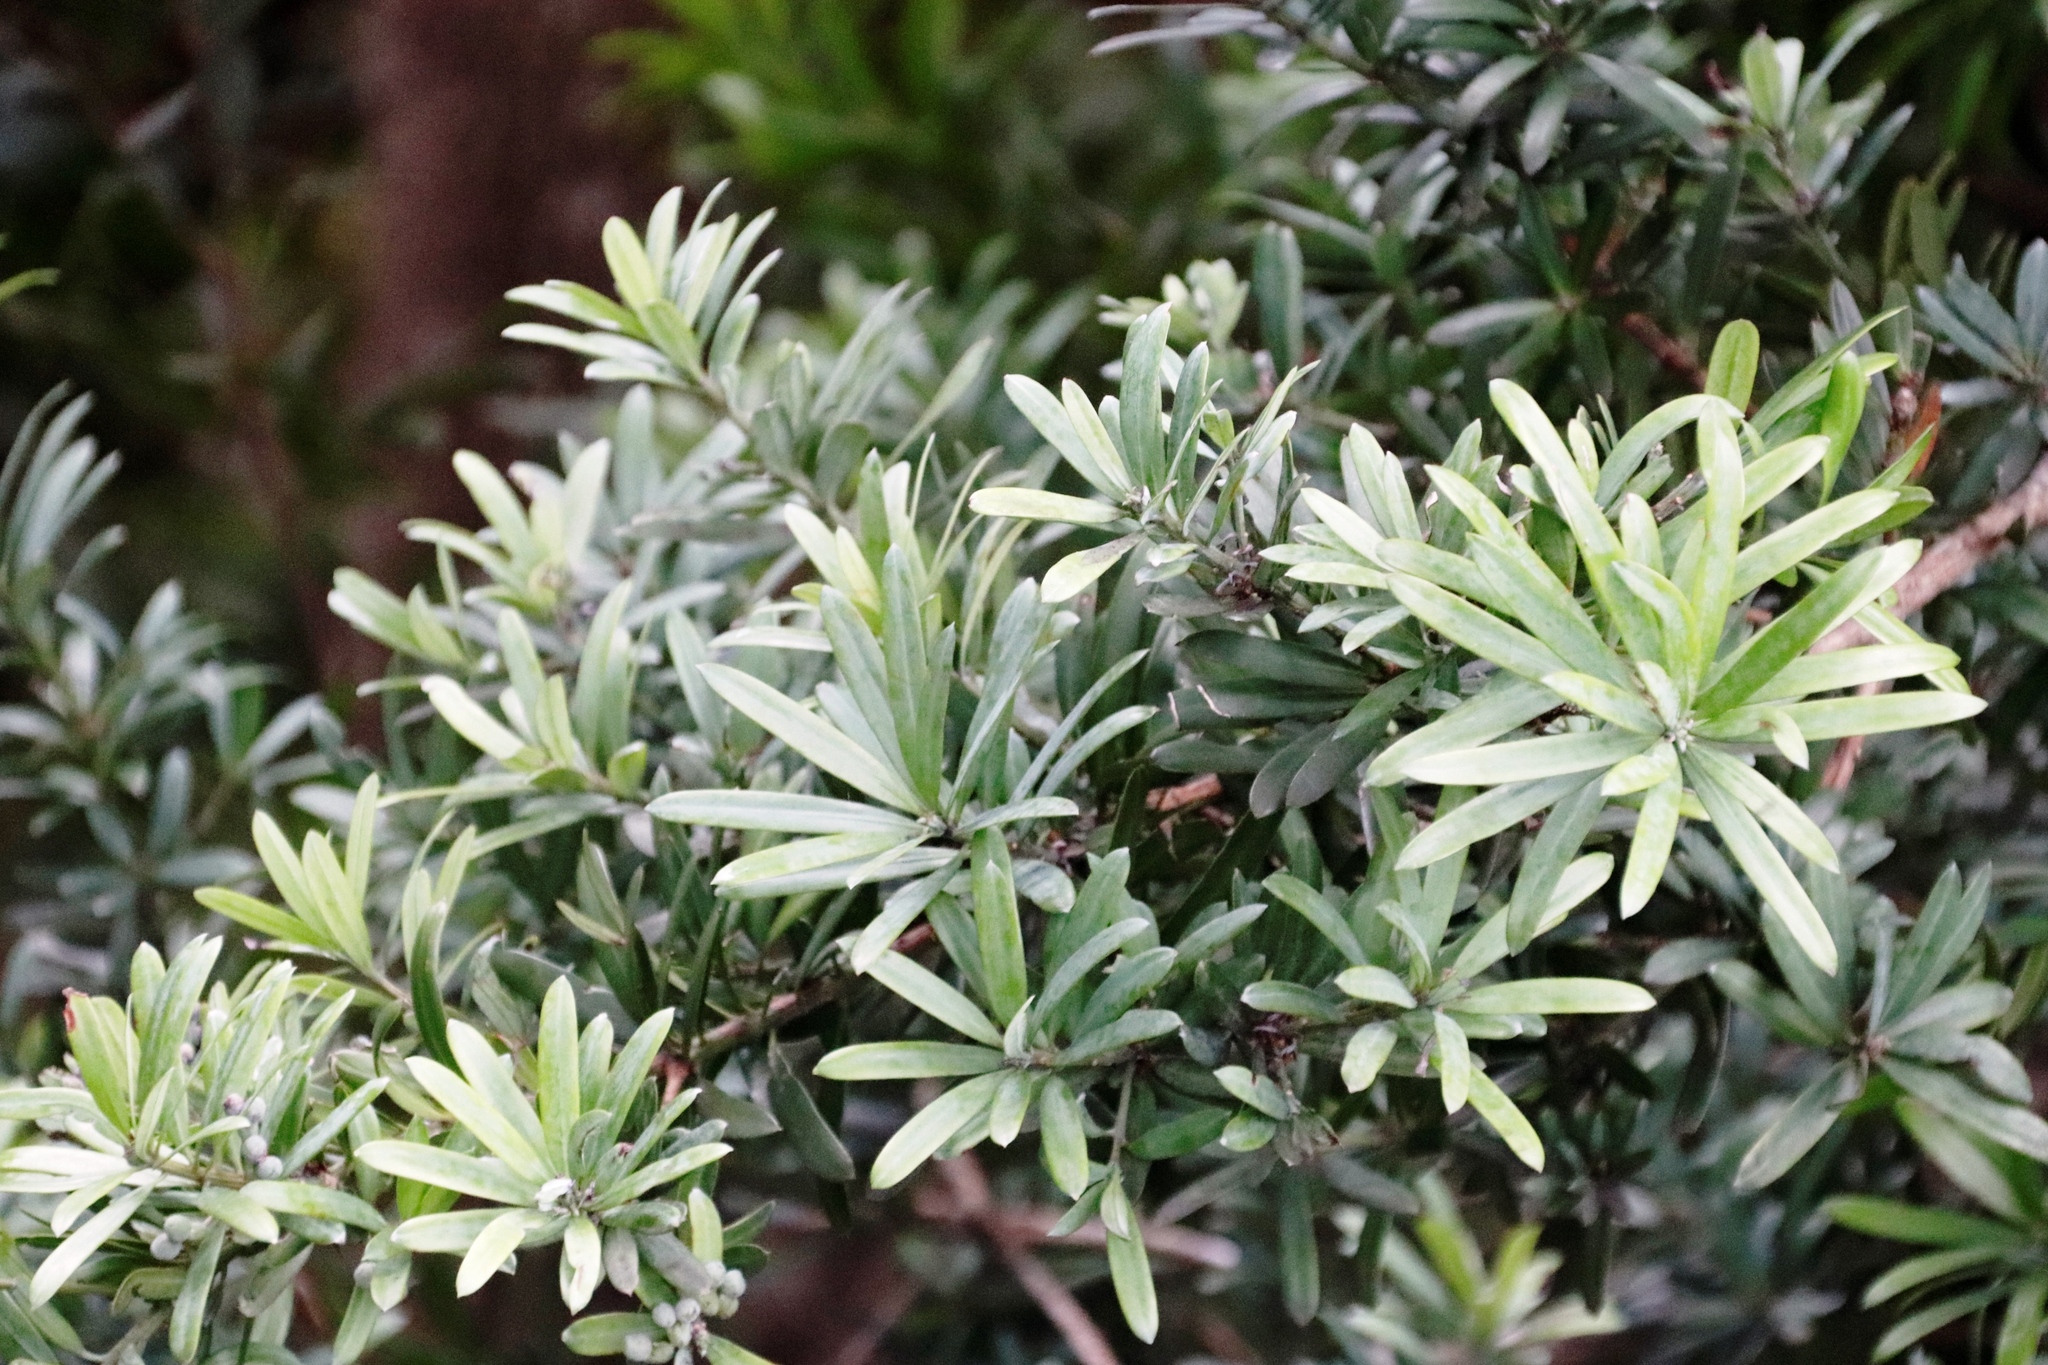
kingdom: Plantae
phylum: Tracheophyta
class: Pinopsida
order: Pinales
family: Podocarpaceae
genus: Podocarpus
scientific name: Podocarpus latifolius
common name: True yellowwood
